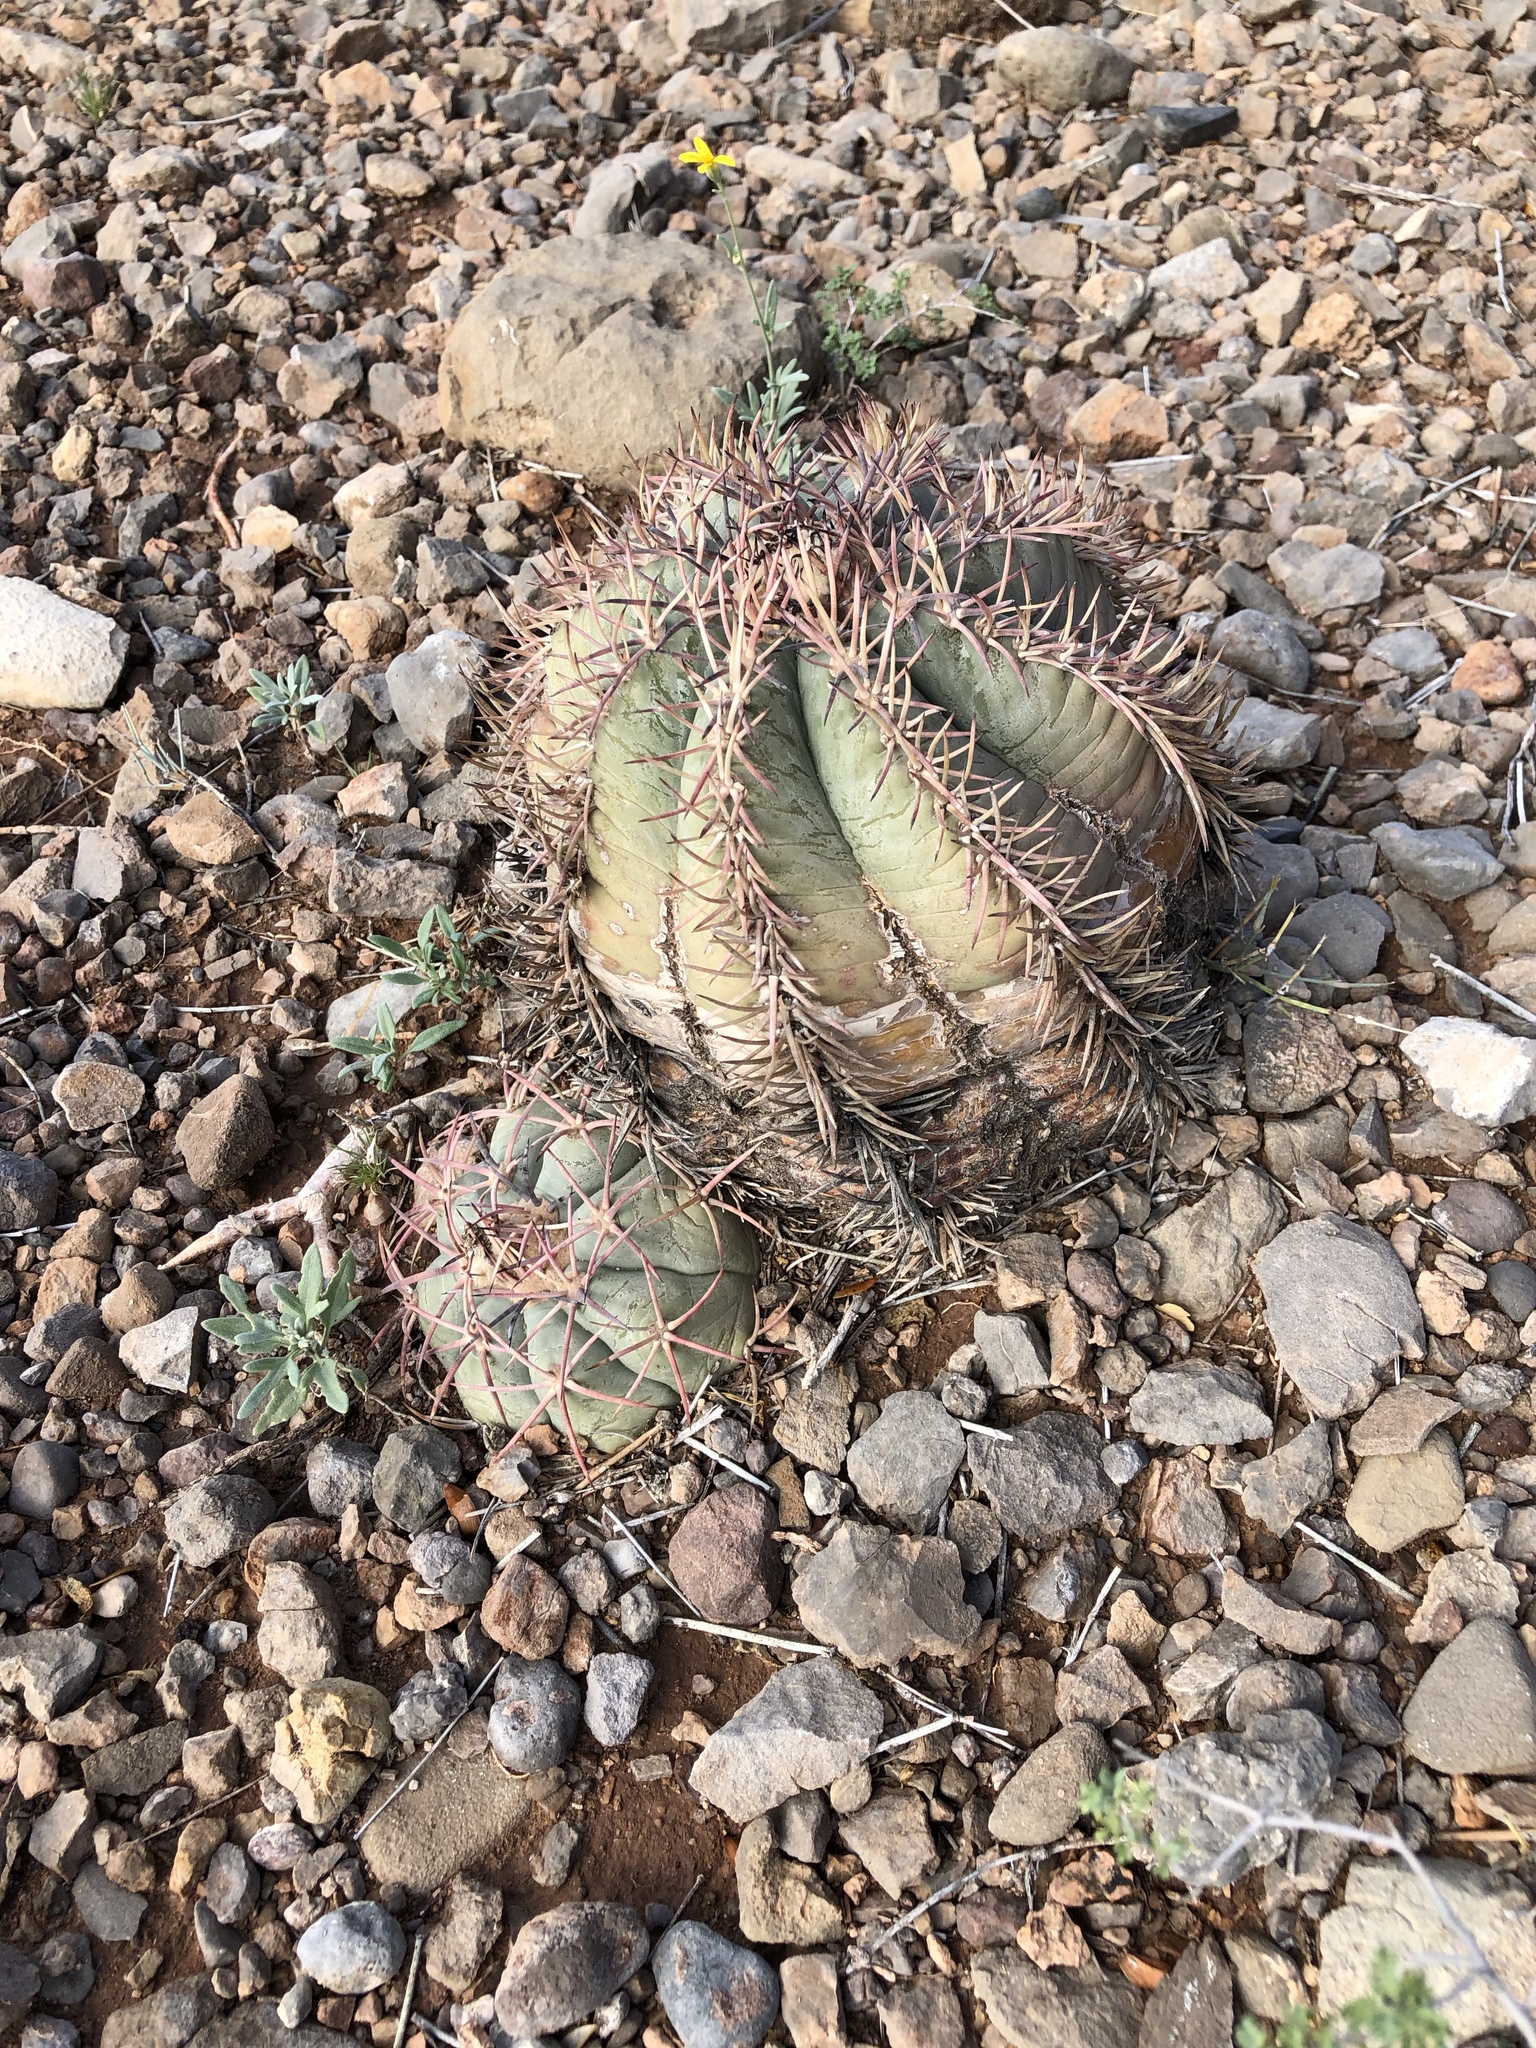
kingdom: Plantae
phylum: Tracheophyta
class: Magnoliopsida
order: Caryophyllales
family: Cactaceae
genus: Echinocactus
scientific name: Echinocactus horizonthalonius
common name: Devilshead
